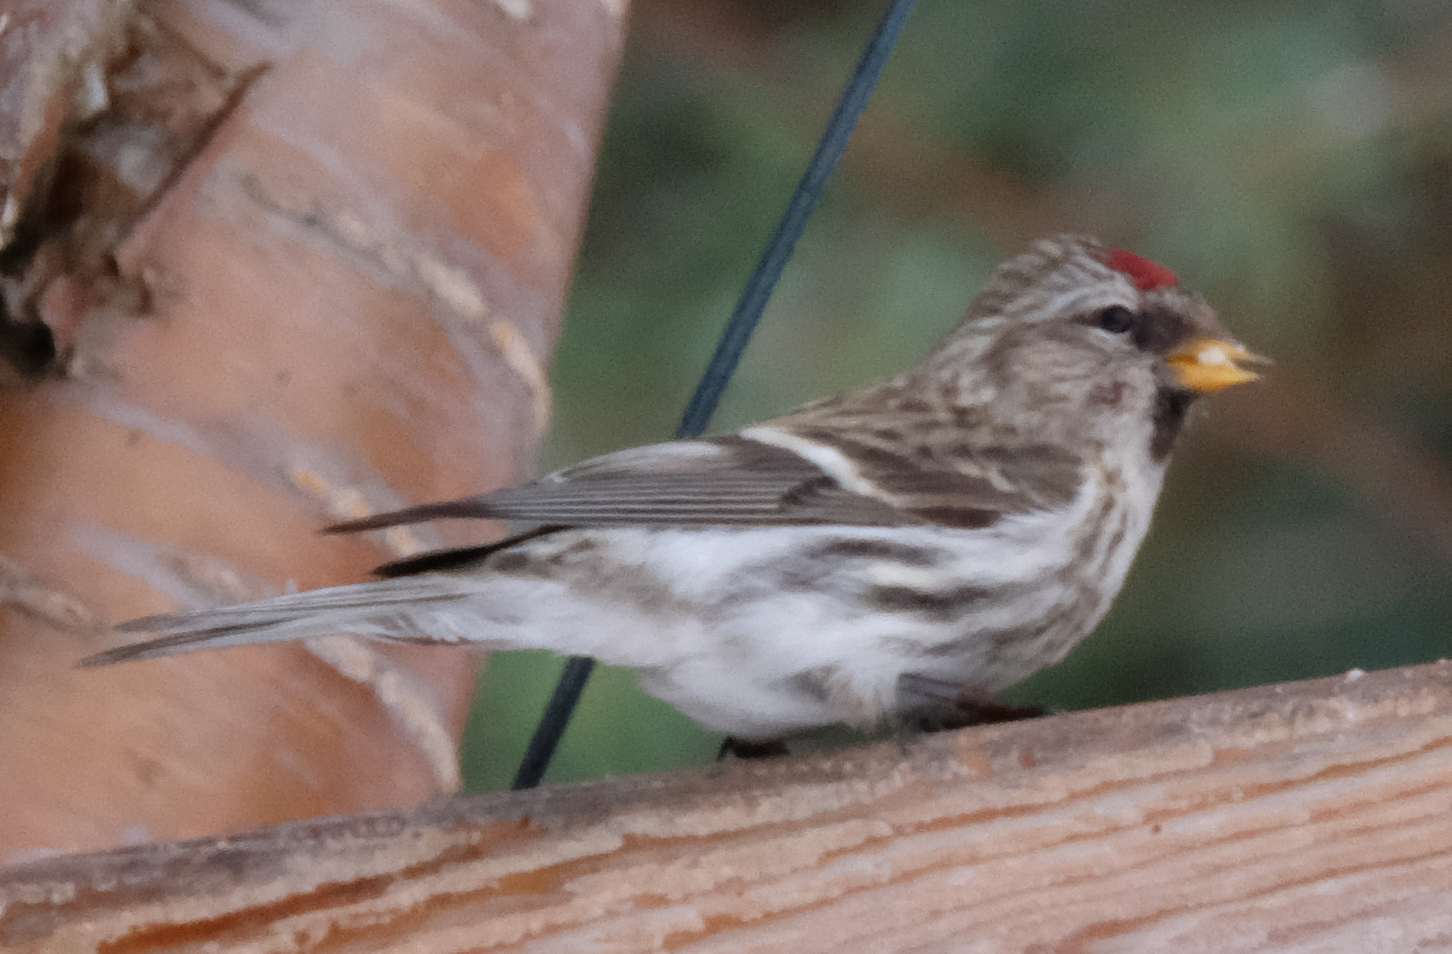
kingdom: Animalia
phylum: Chordata
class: Aves
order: Passeriformes
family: Fringillidae
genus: Acanthis
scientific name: Acanthis flammea
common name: Common redpoll
